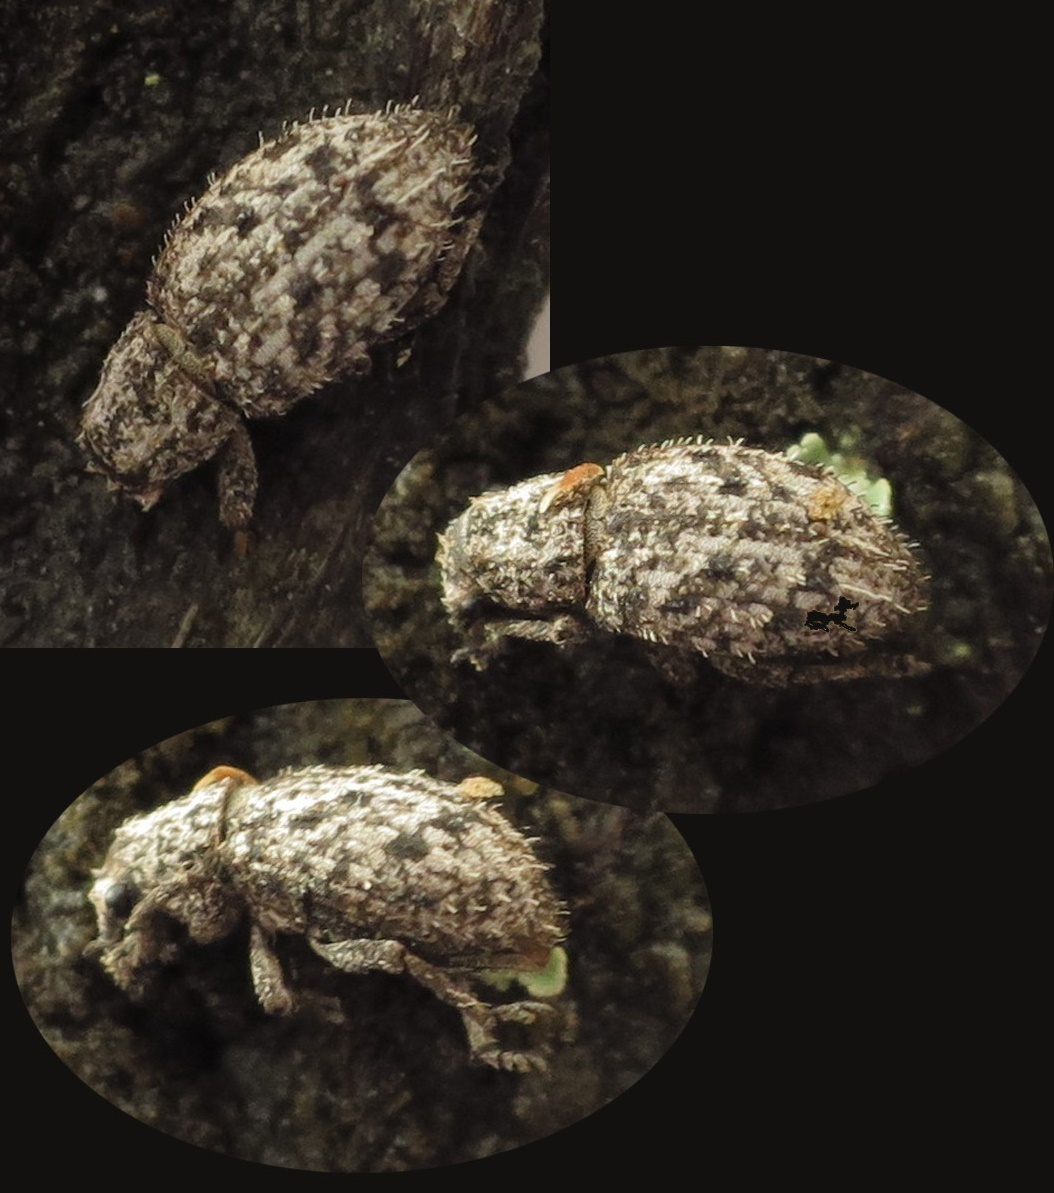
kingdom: Animalia
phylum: Arthropoda
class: Insecta
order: Coleoptera
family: Curculionidae
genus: Floresianus
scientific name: Floresianus sordidus
